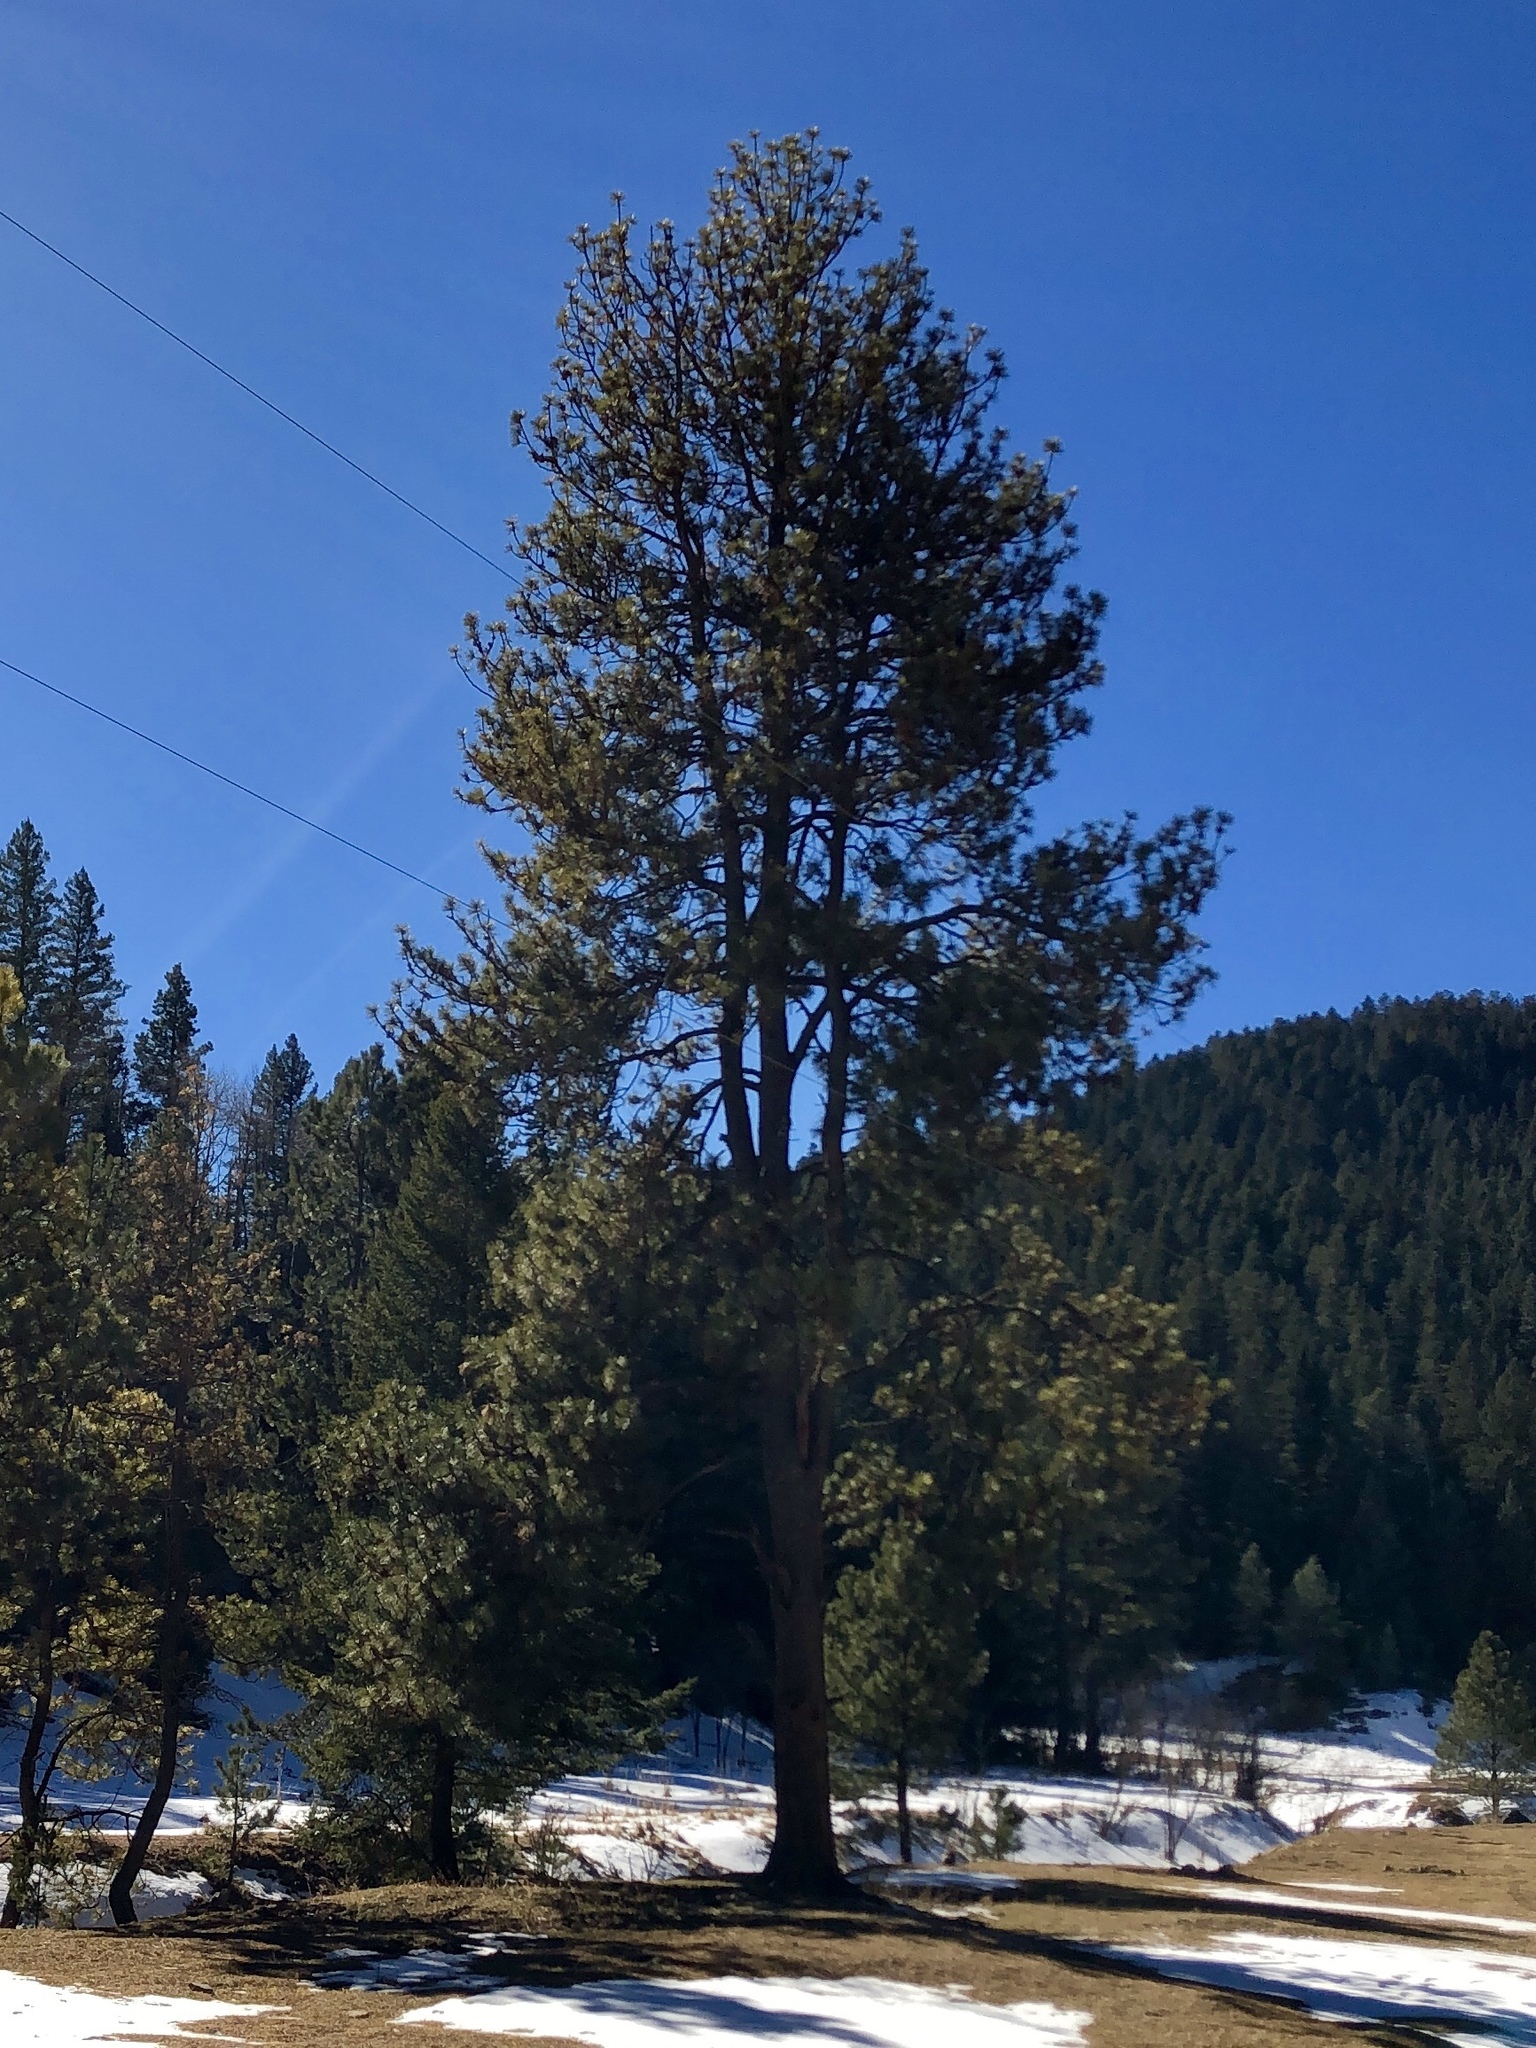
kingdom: Plantae
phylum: Tracheophyta
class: Pinopsida
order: Pinales
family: Pinaceae
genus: Pinus
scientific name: Pinus ponderosa
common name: Western yellow-pine
